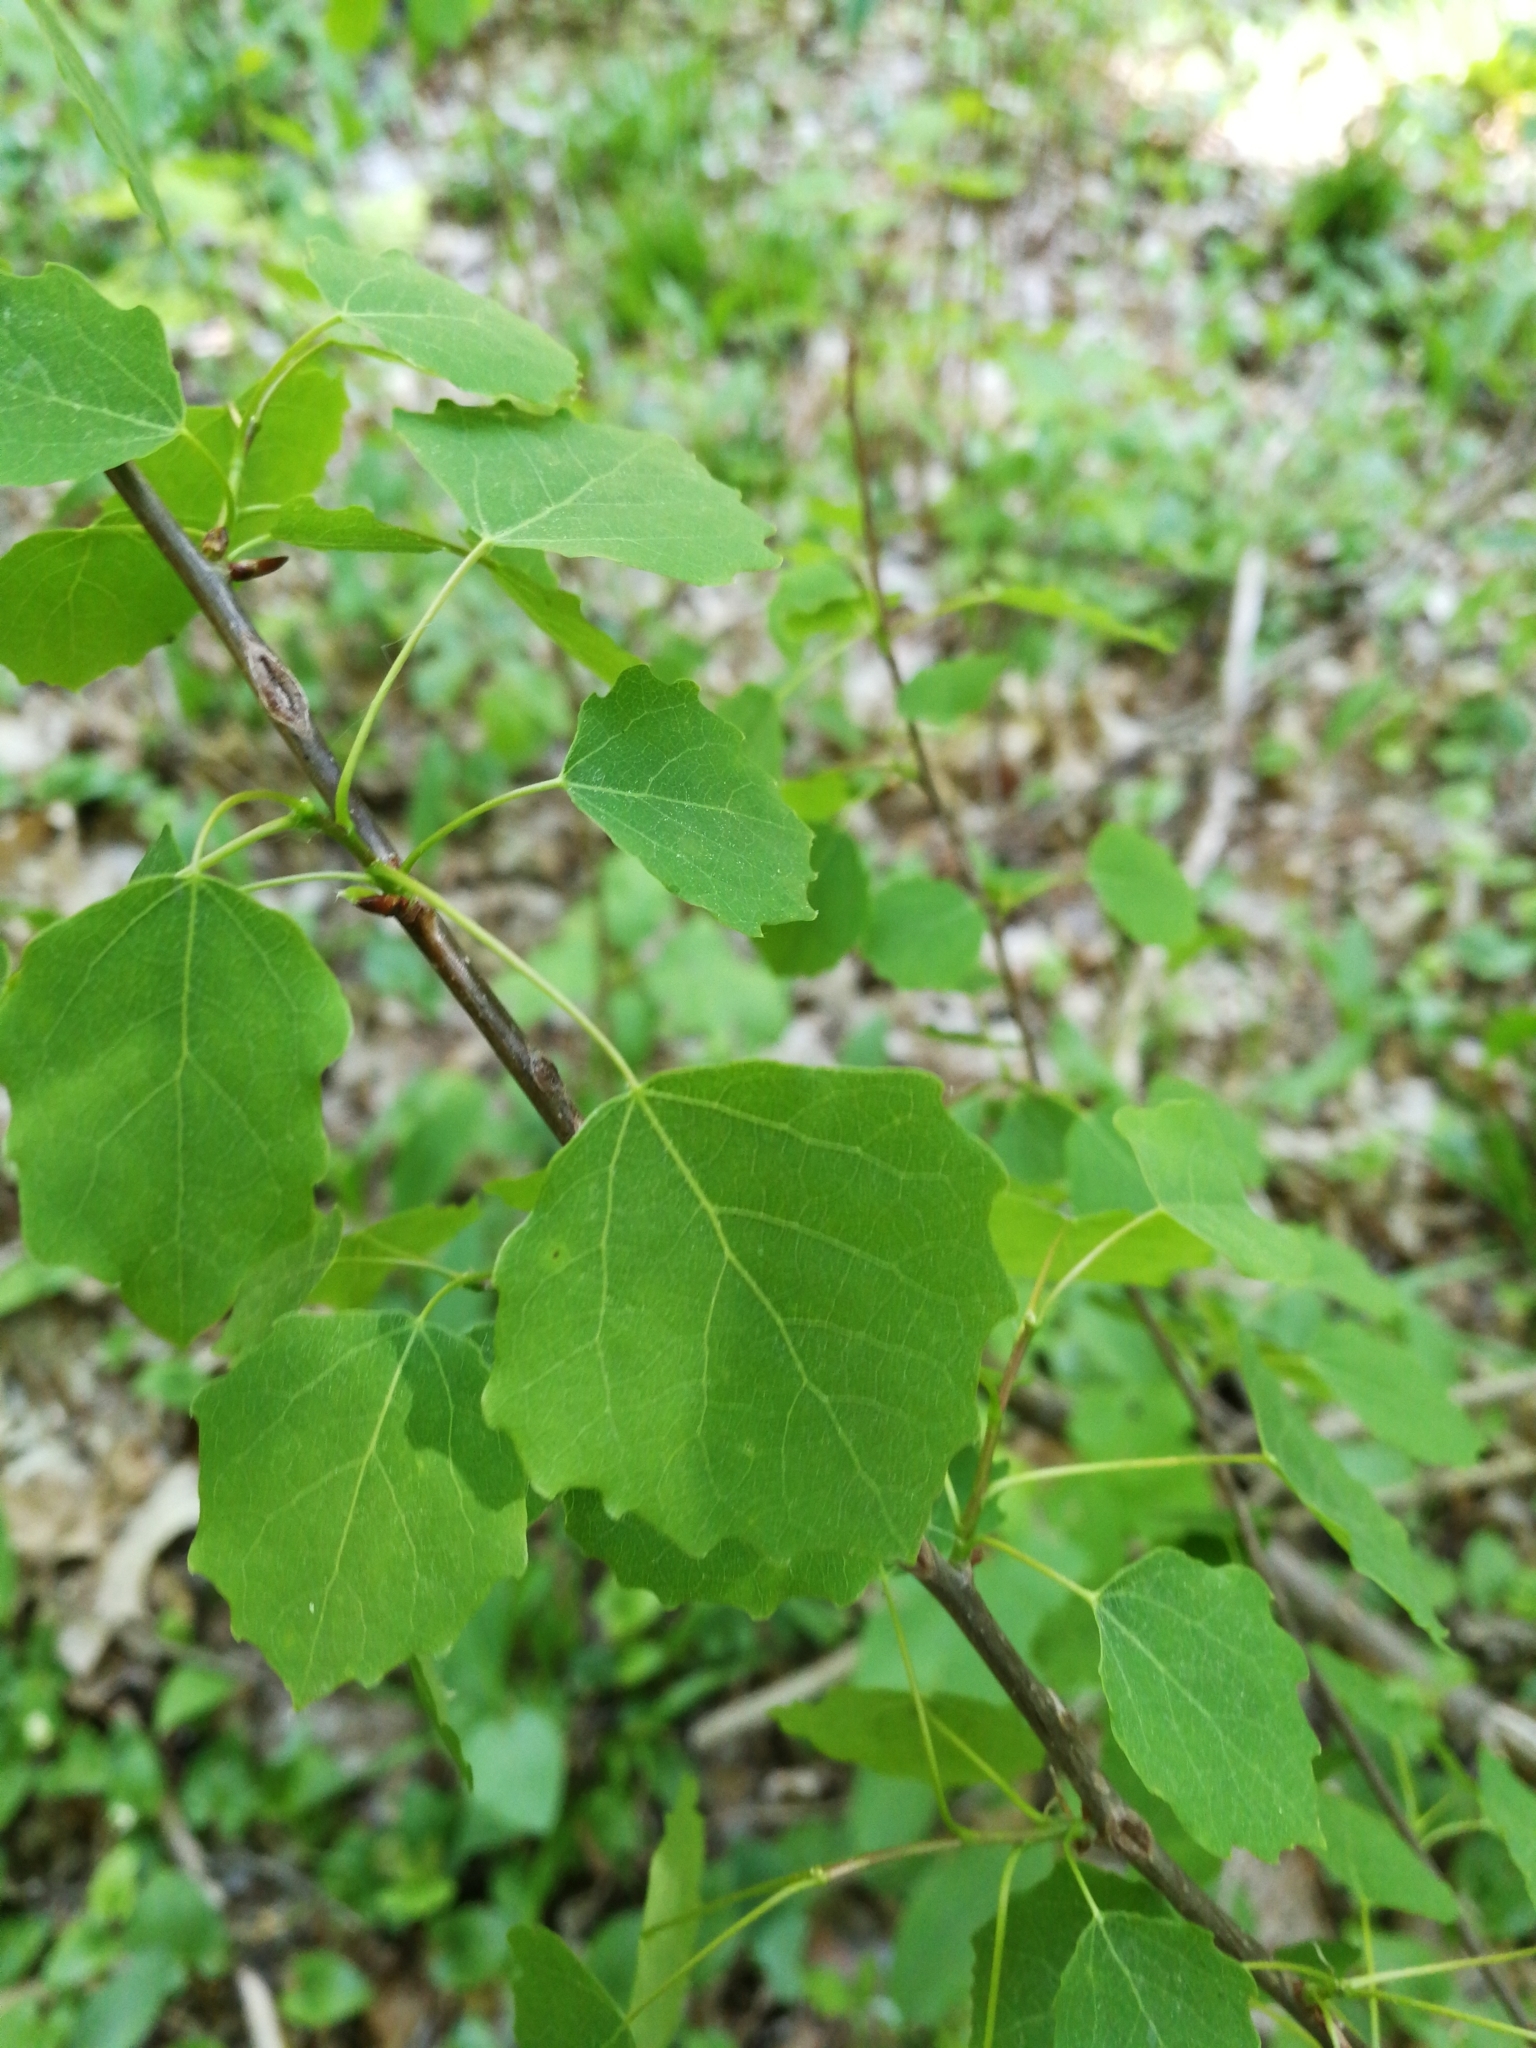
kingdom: Plantae
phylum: Tracheophyta
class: Magnoliopsida
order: Fagales
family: Betulaceae
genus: Betula
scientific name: Betula pendula
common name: Silver birch
